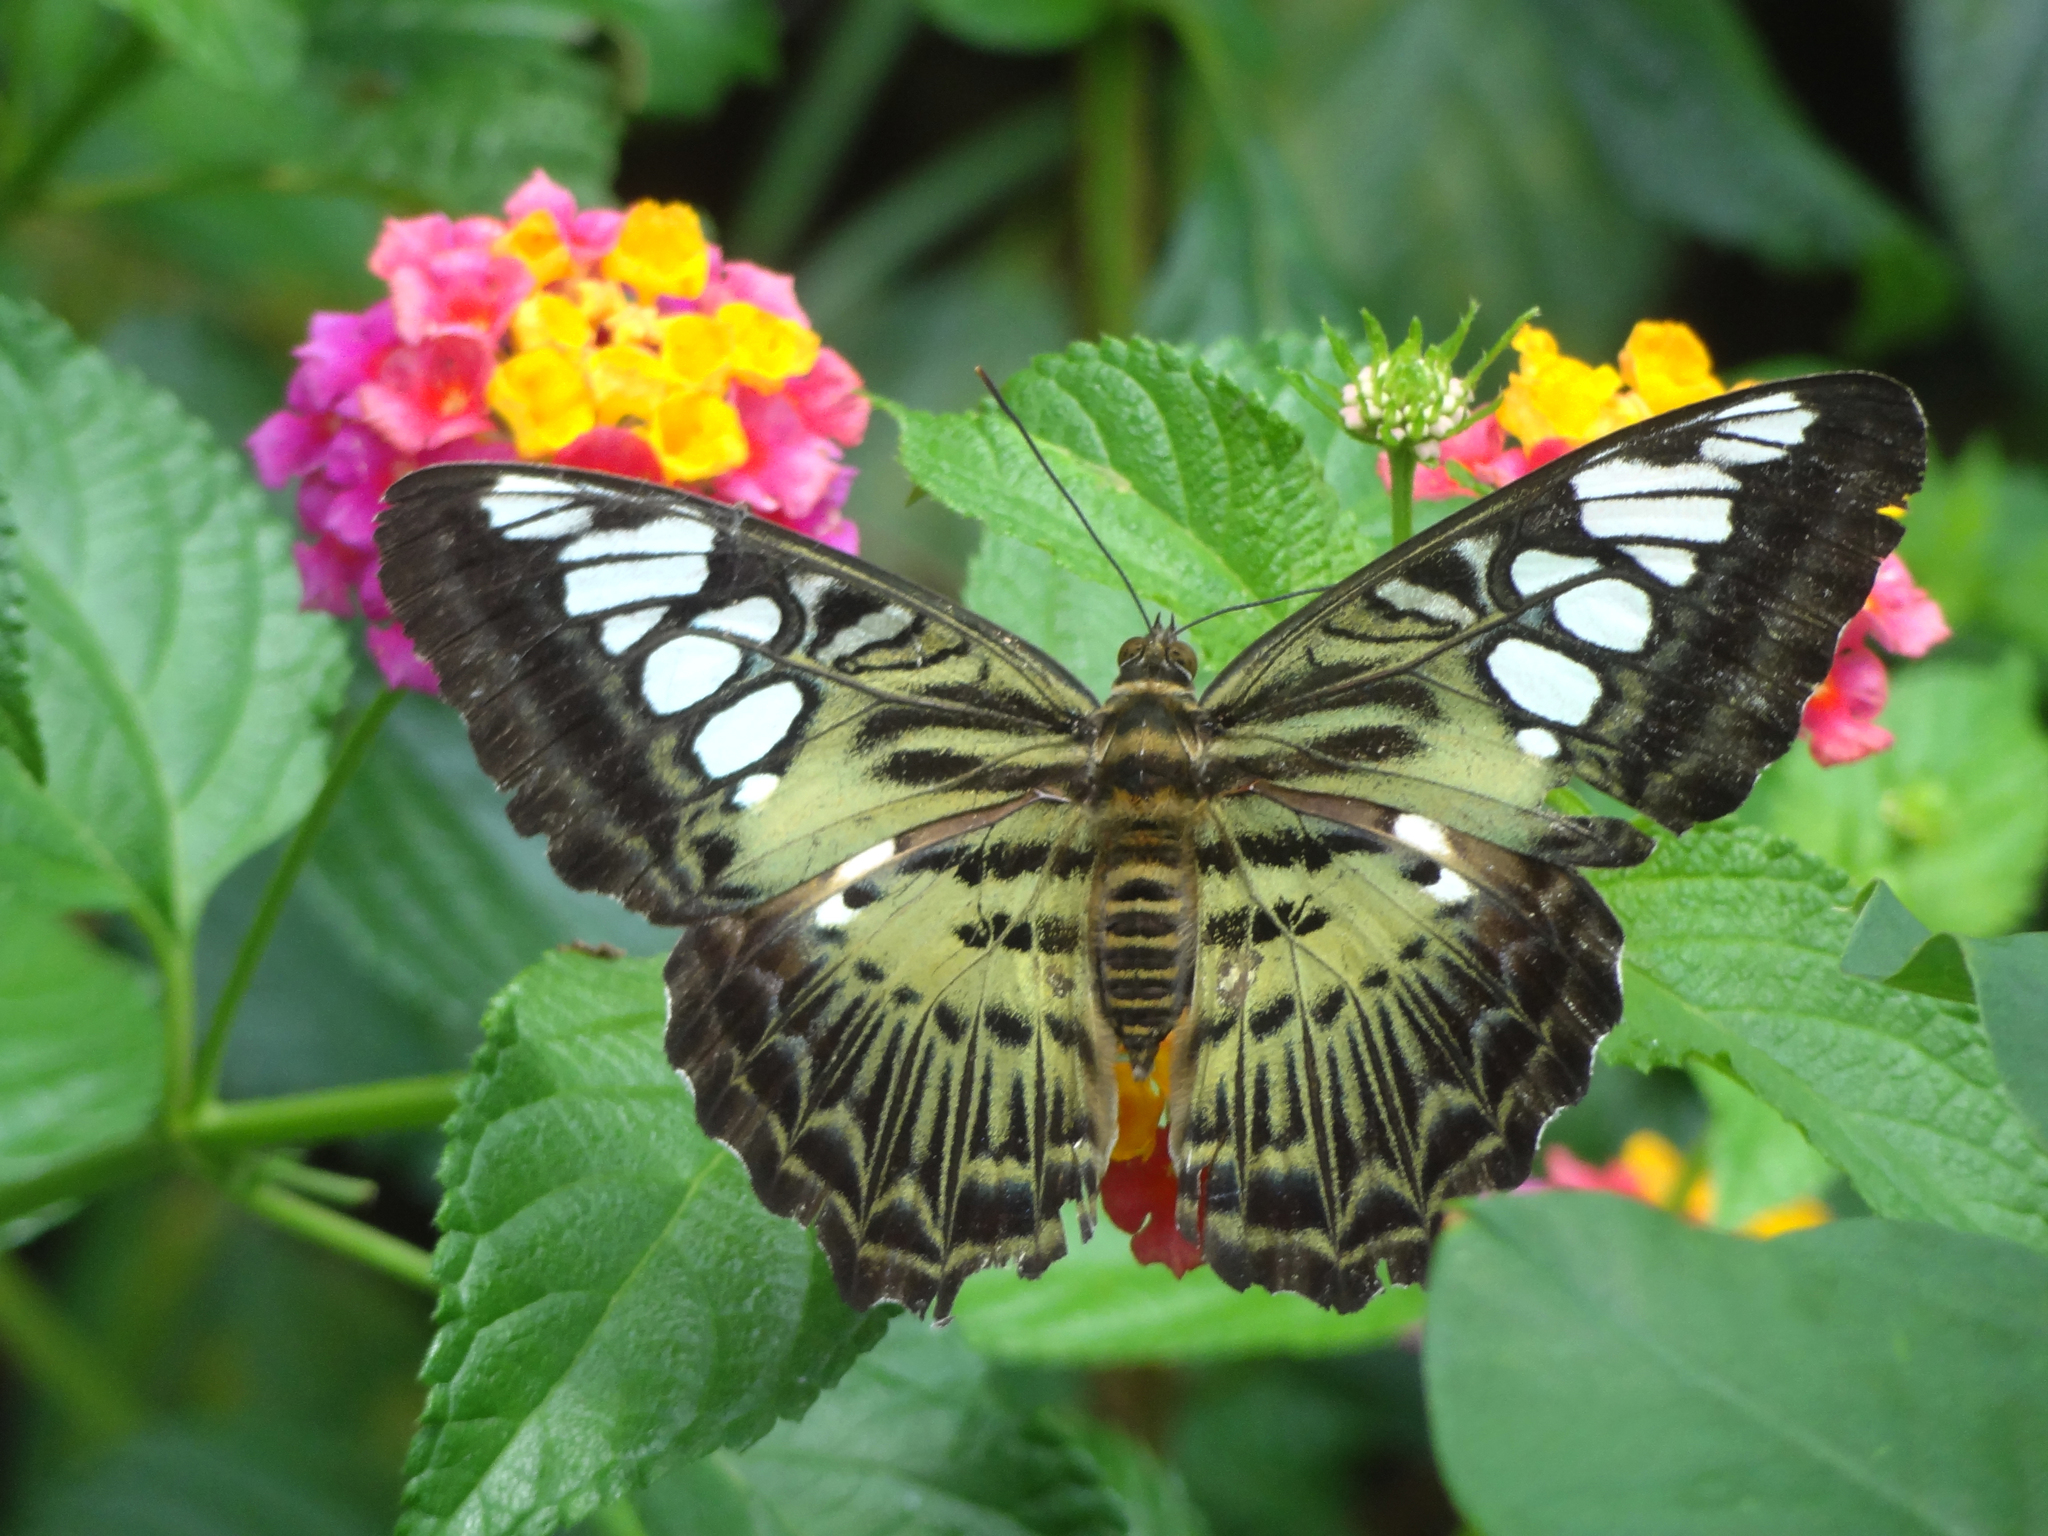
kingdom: Animalia
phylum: Arthropoda
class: Insecta
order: Lepidoptera
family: Nymphalidae
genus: Kallima
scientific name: Kallima sylvia
